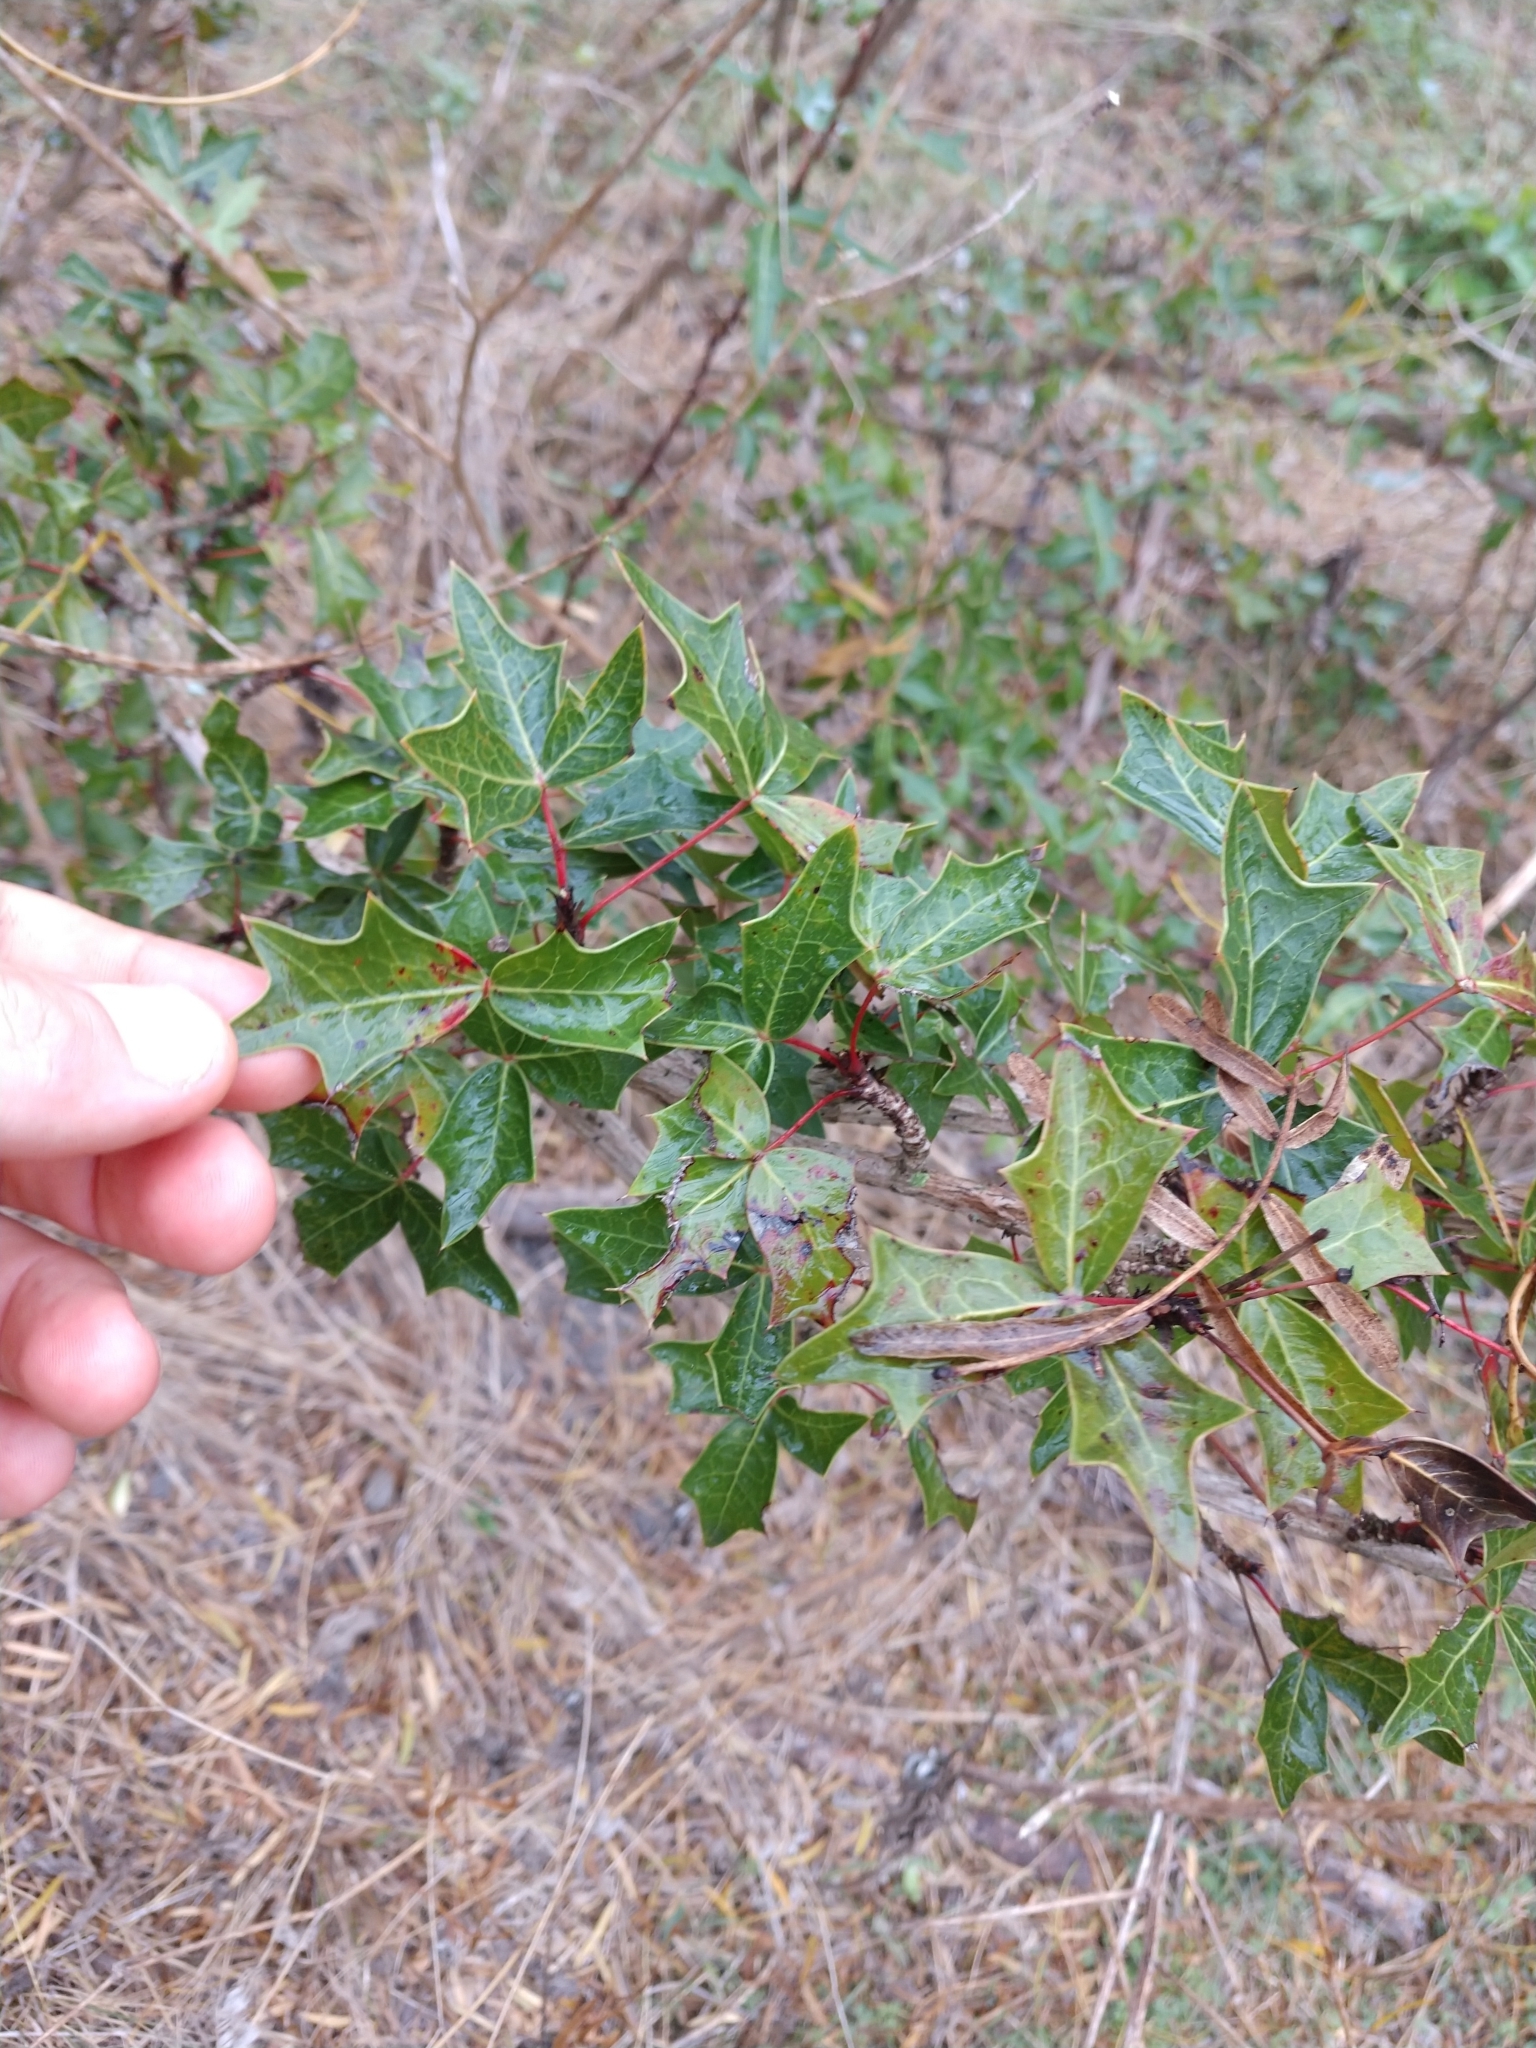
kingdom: Plantae
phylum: Tracheophyta
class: Magnoliopsida
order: Ranunculales
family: Berberidaceae
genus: Alloberberis
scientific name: Alloberberis trifoliolata
